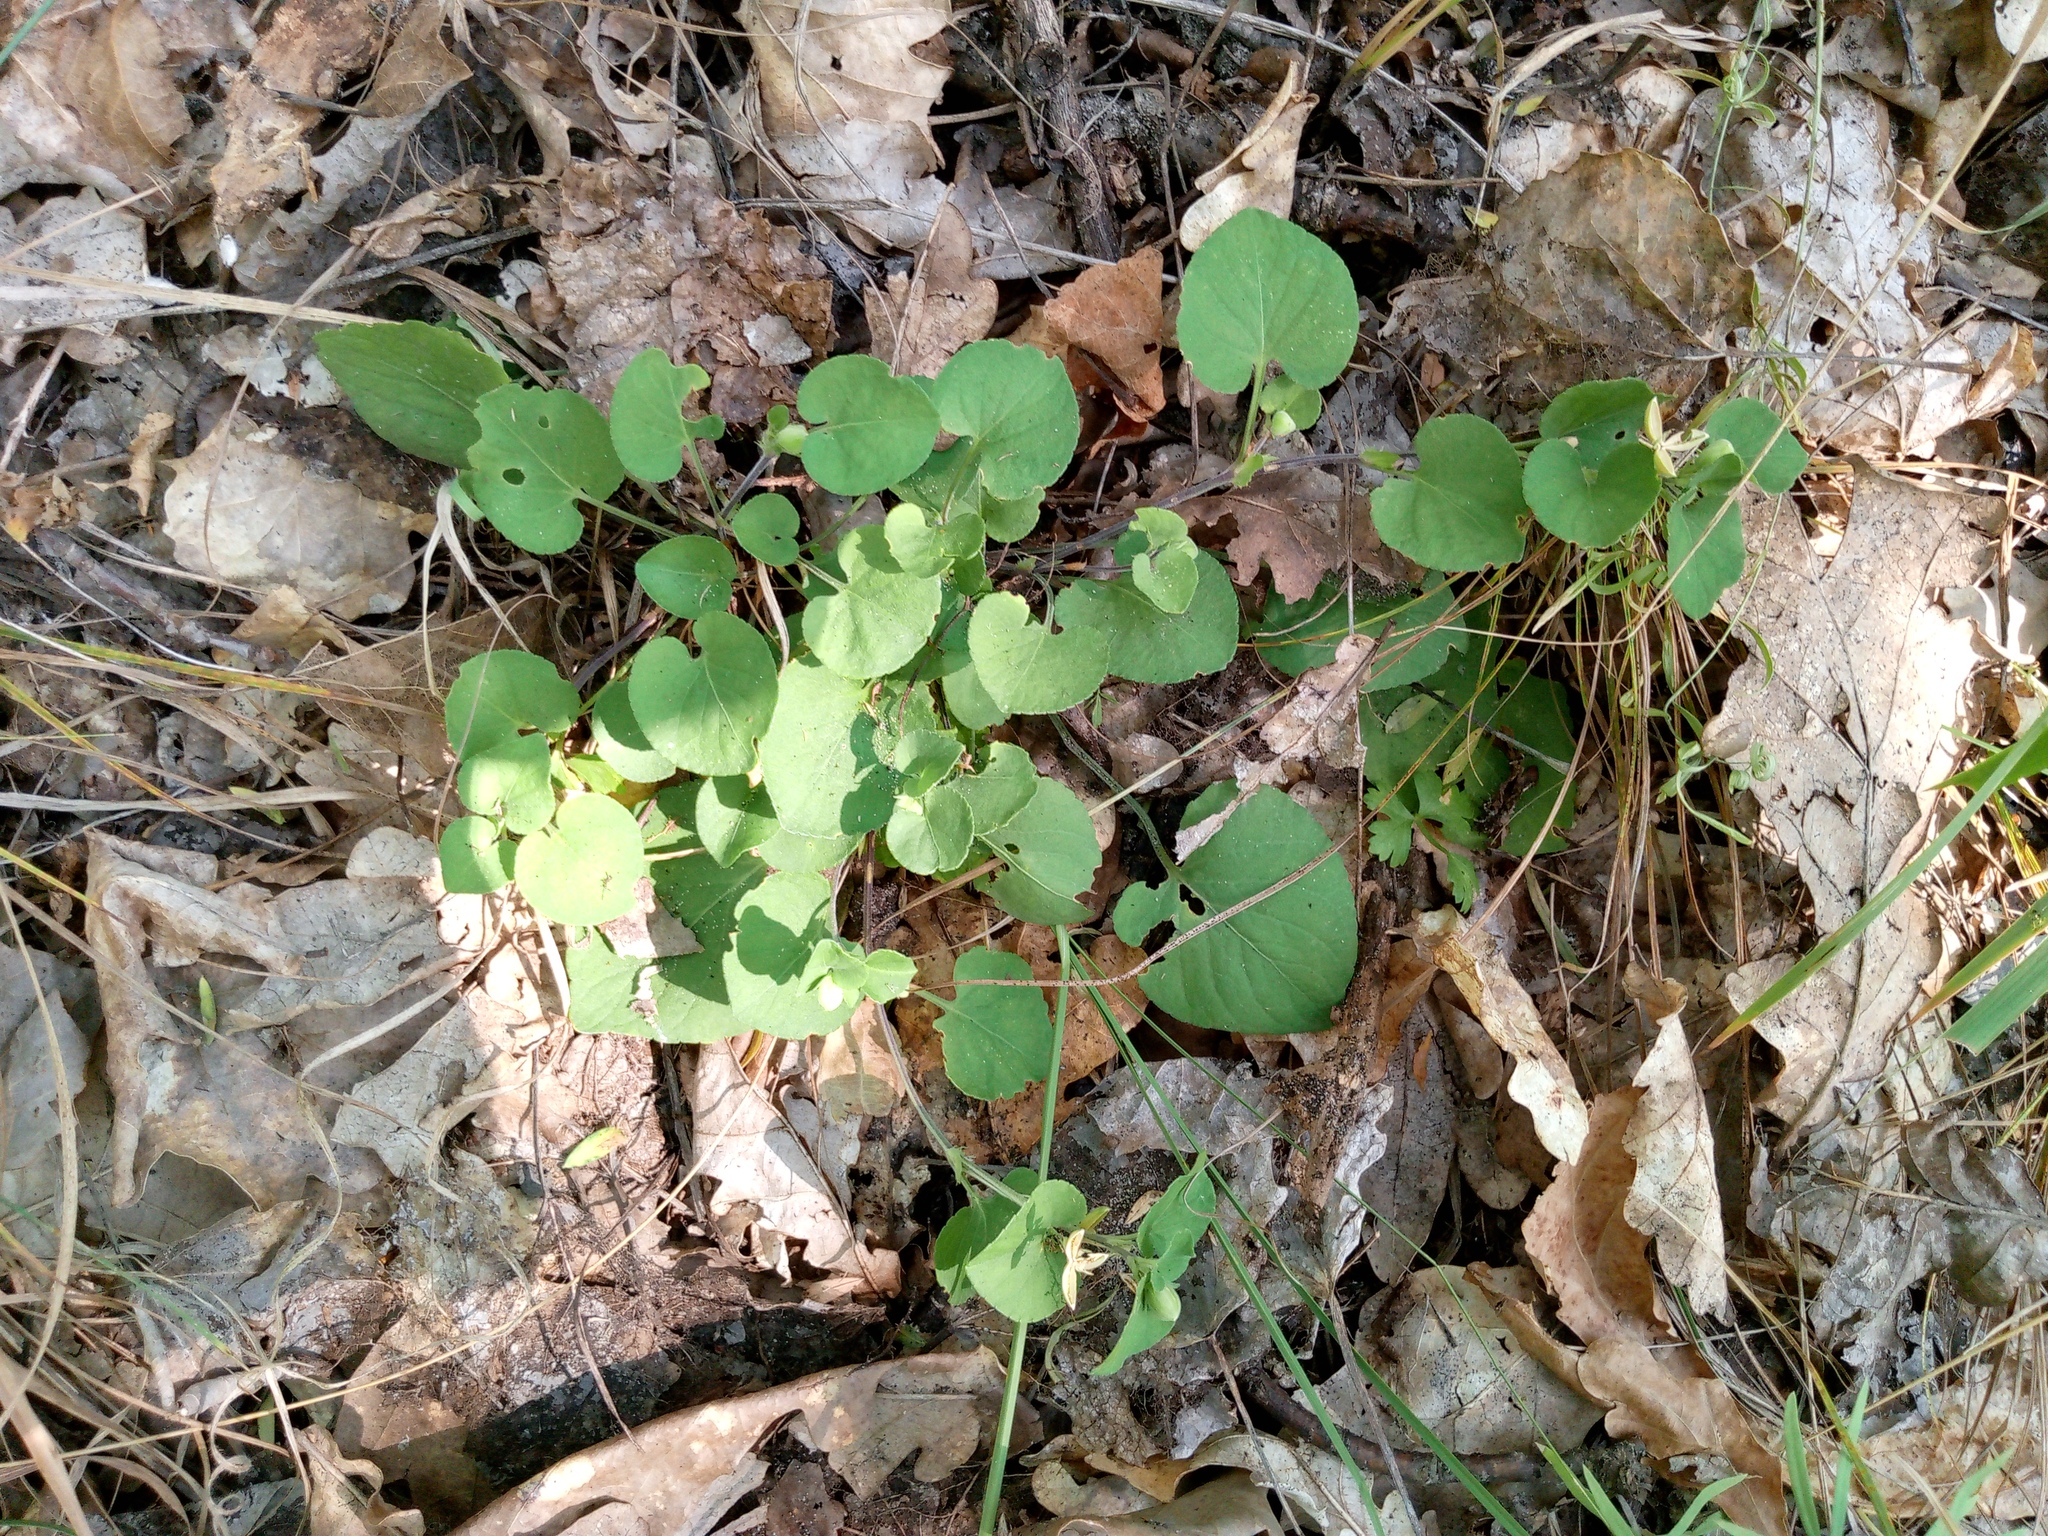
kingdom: Plantae
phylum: Tracheophyta
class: Magnoliopsida
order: Malpighiales
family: Violaceae
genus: Viola
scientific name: Viola rupestris
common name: Teesdale violet
